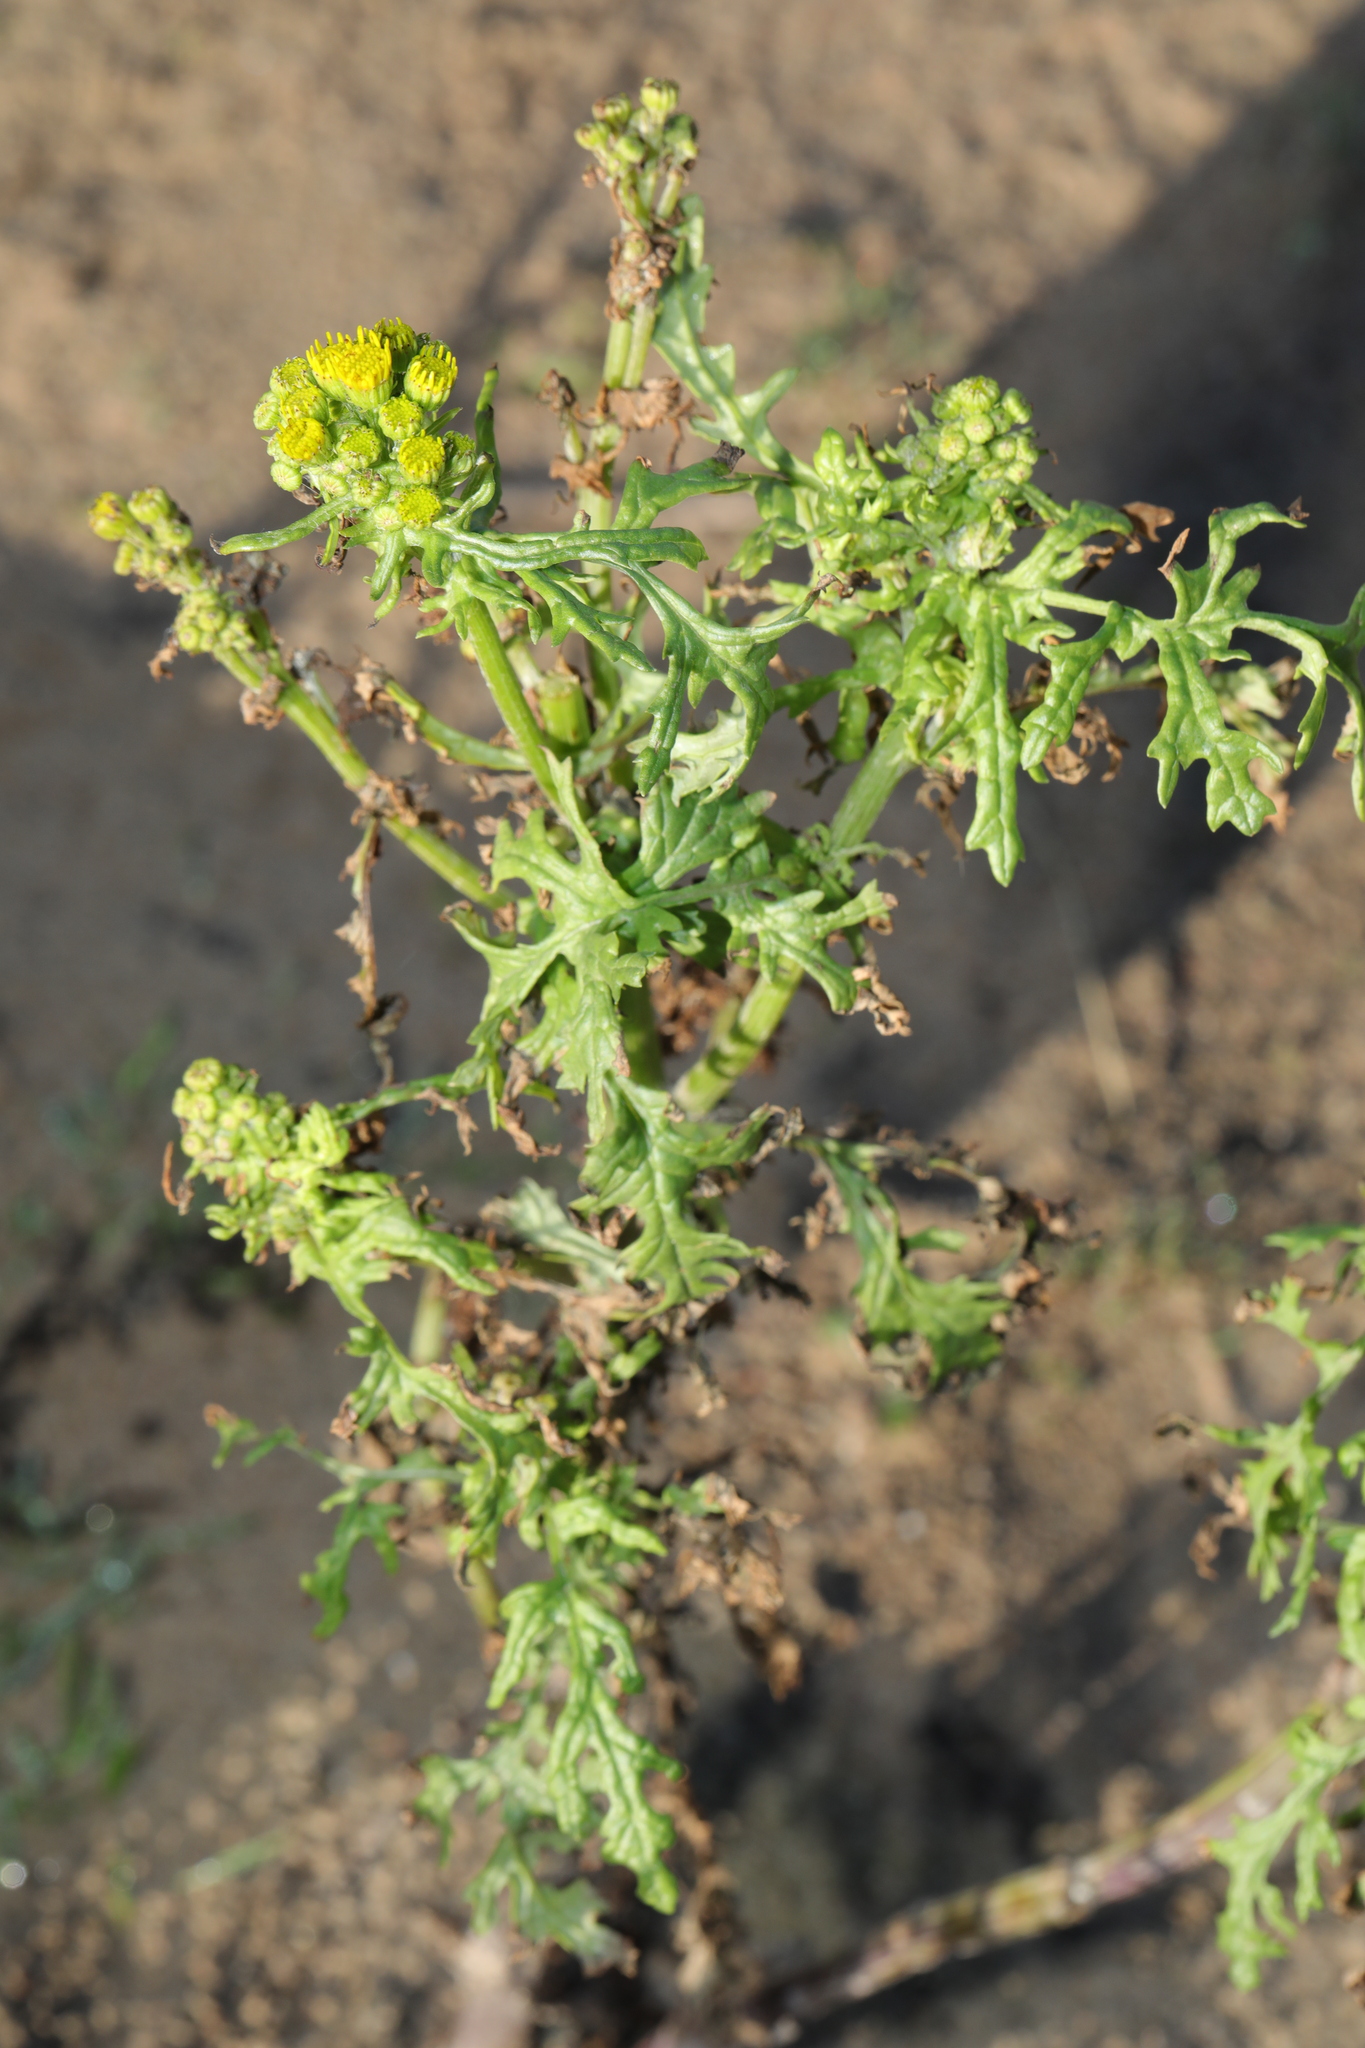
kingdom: Plantae
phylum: Tracheophyta
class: Magnoliopsida
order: Asterales
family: Asteraceae
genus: Senecio
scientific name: Senecio squalidus
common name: Oxford ragwort
